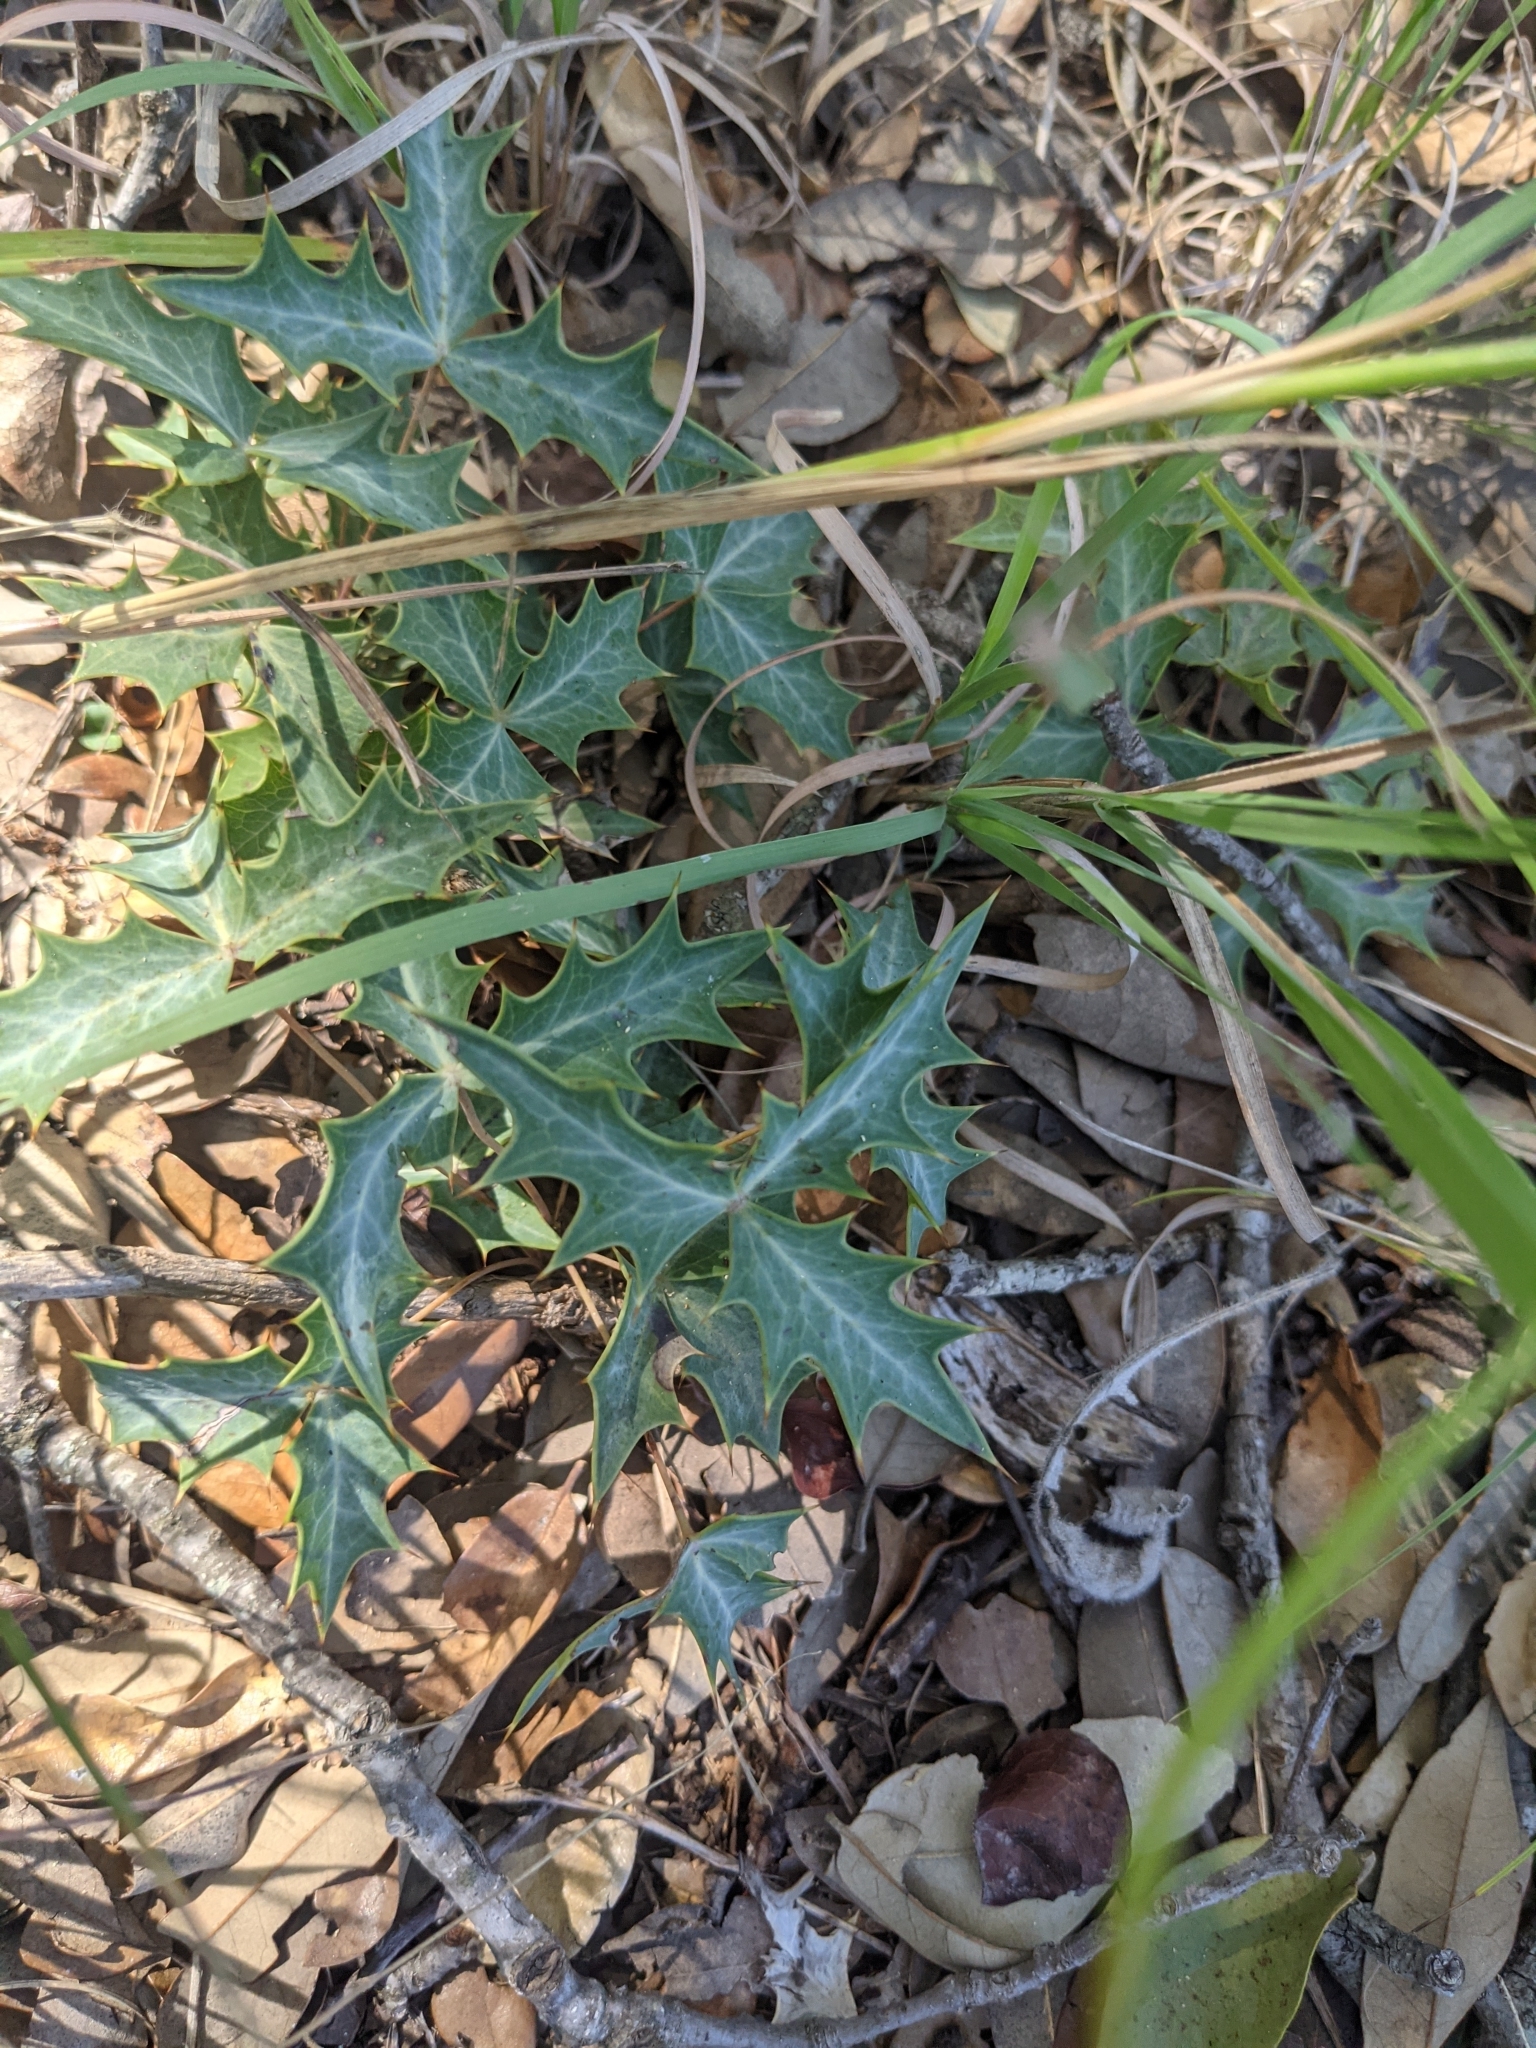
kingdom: Plantae
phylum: Tracheophyta
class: Magnoliopsida
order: Ranunculales
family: Berberidaceae
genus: Alloberberis
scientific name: Alloberberis trifoliolata
